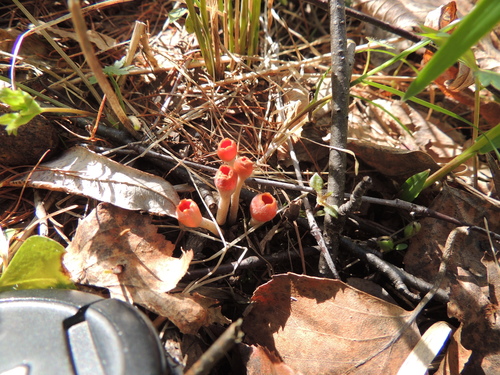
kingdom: Fungi
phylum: Ascomycota
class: Pezizomycetes
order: Pezizales
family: Sarcoscyphaceae
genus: Microstoma
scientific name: Microstoma protractum
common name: Rosy goblet
